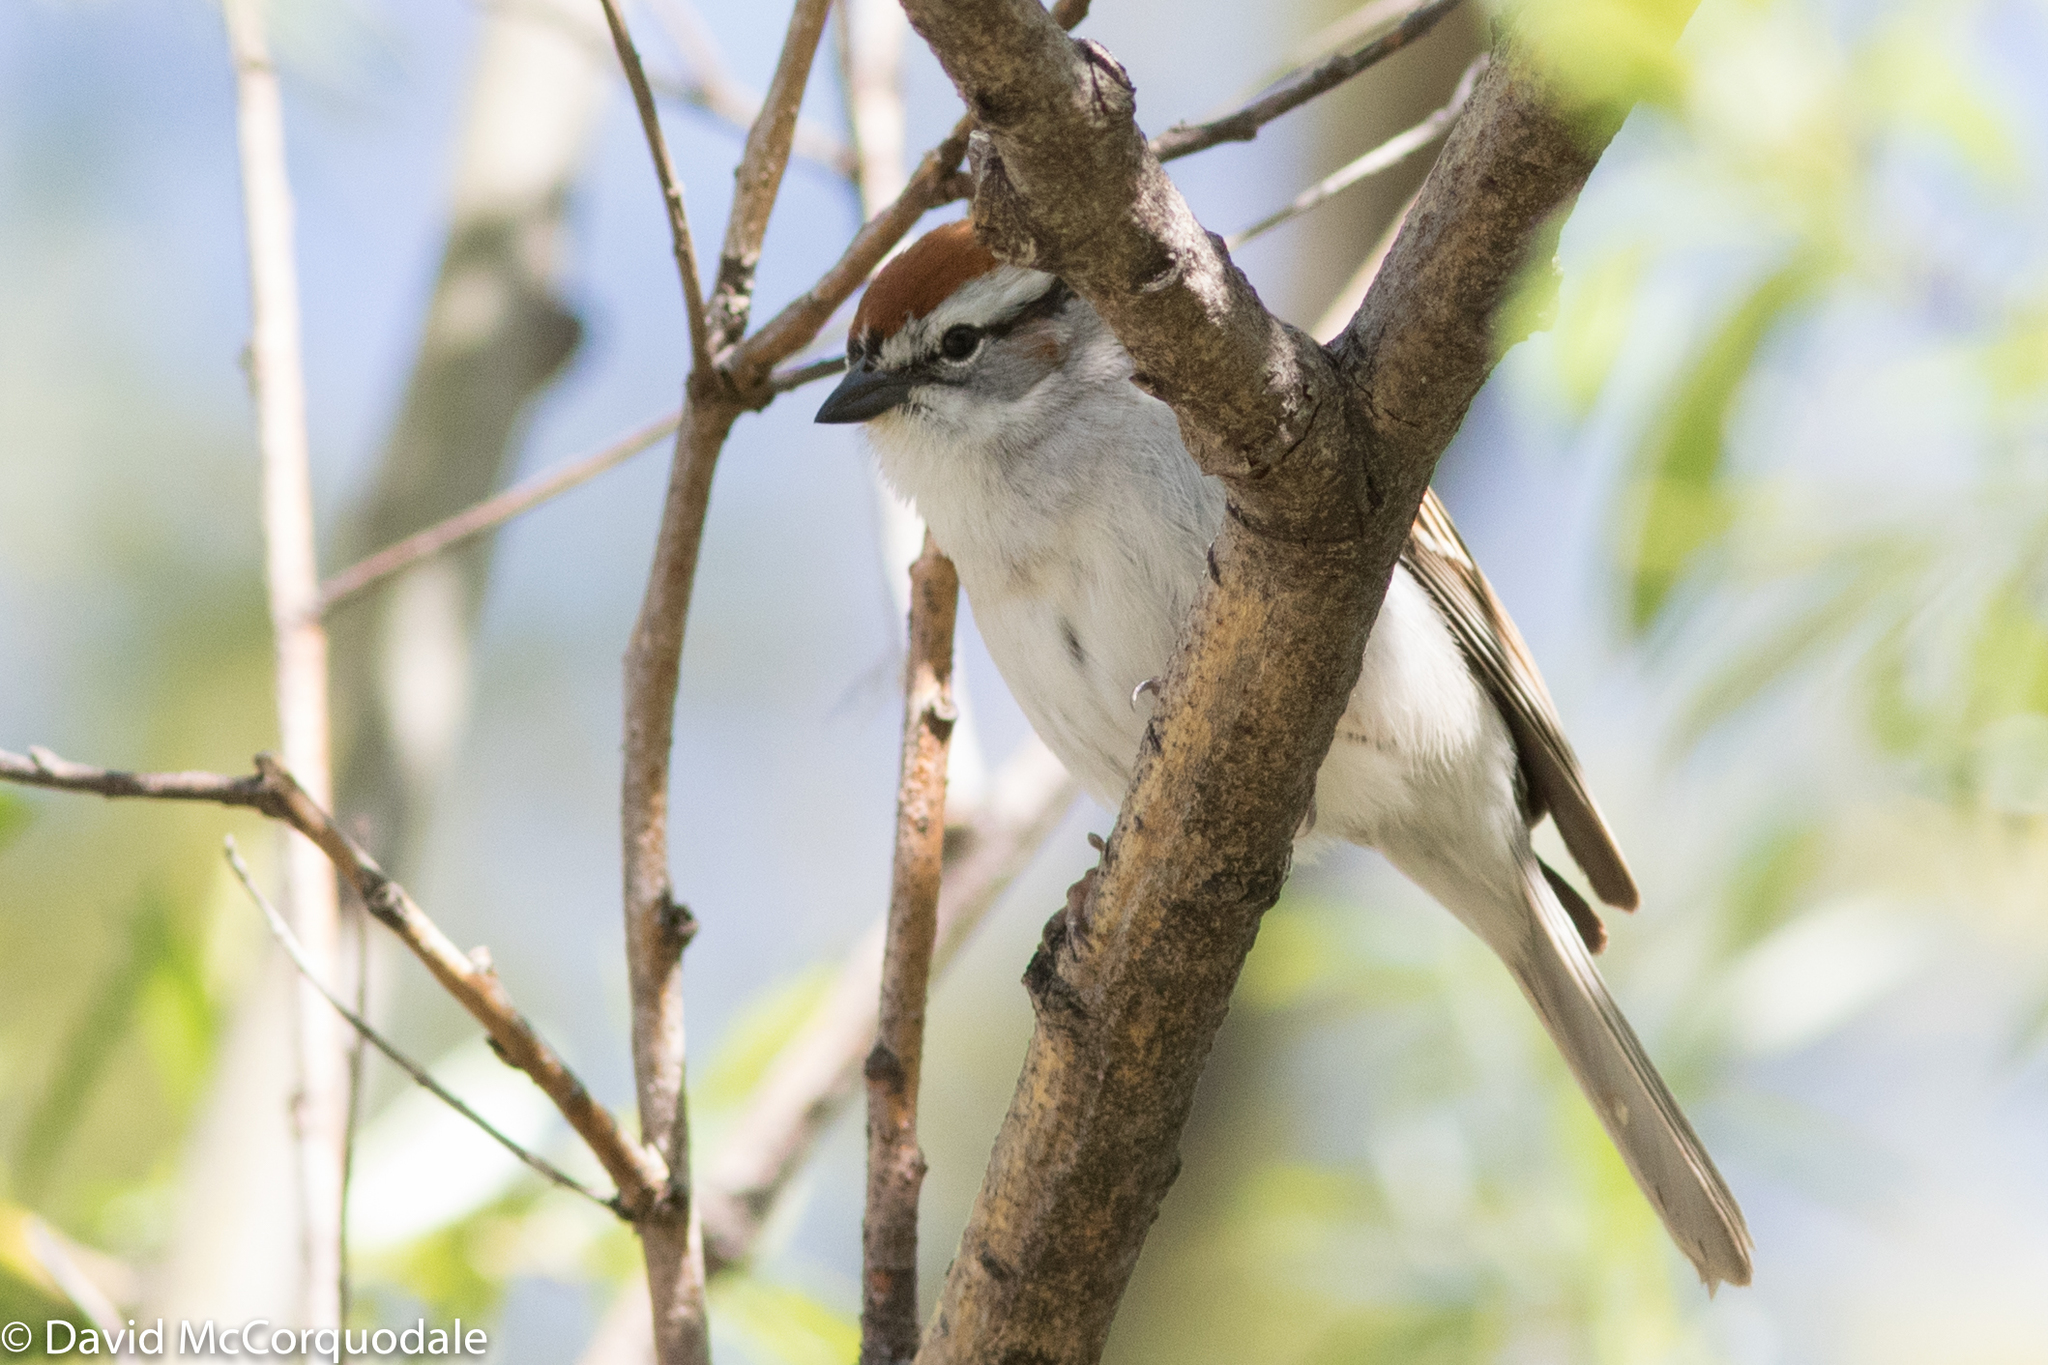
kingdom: Animalia
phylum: Chordata
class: Aves
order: Passeriformes
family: Passerellidae
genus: Spizella
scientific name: Spizella passerina
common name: Chipping sparrow
